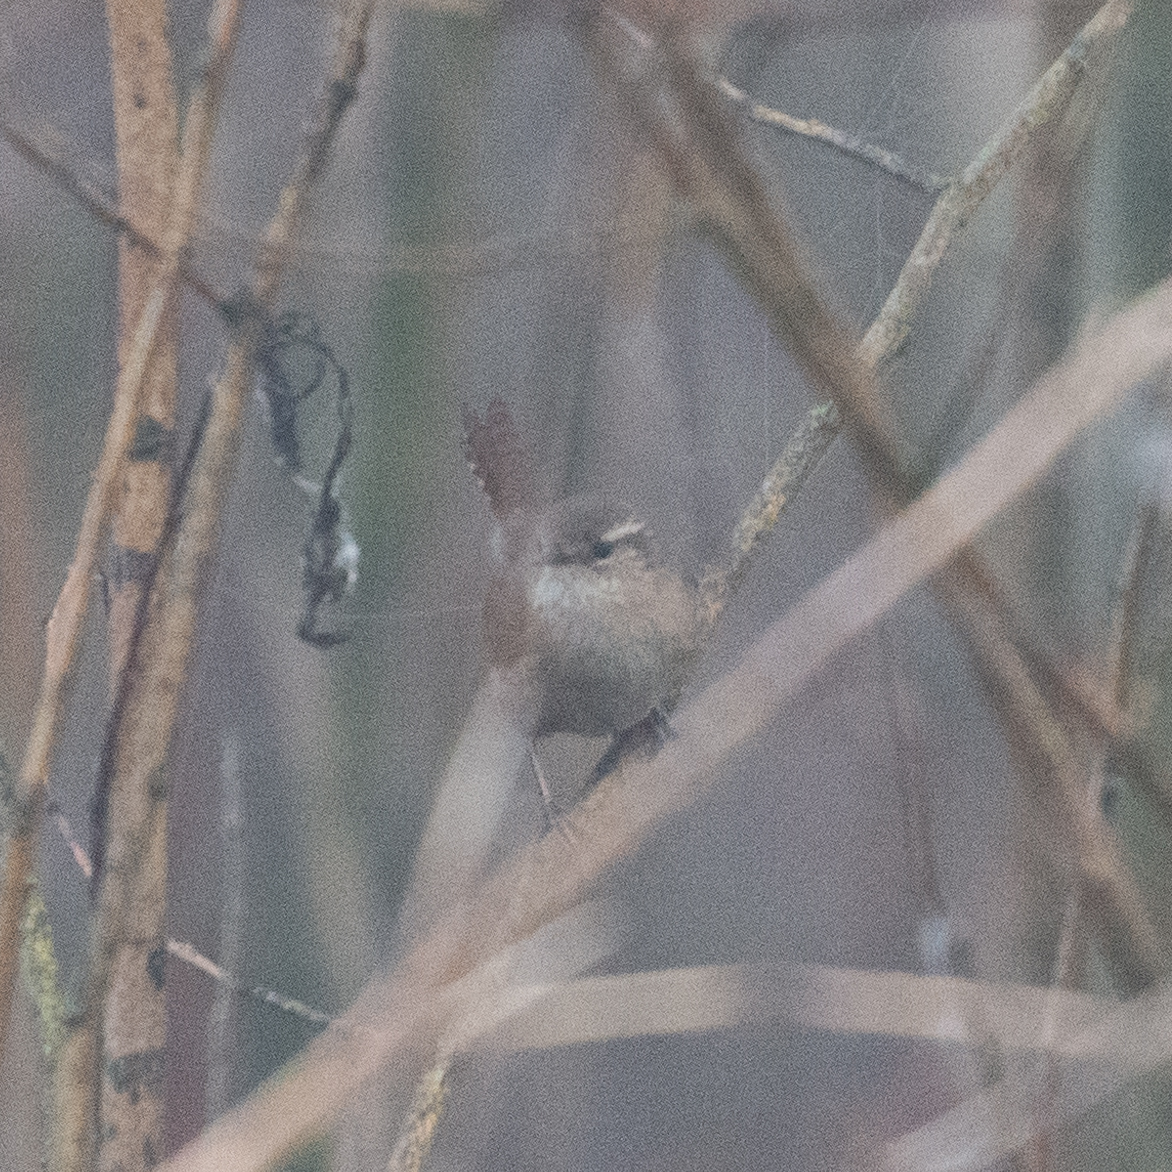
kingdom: Animalia
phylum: Chordata
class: Aves
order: Passeriformes
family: Troglodytidae
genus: Troglodytes
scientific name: Troglodytes troglodytes
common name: Eurasian wren
